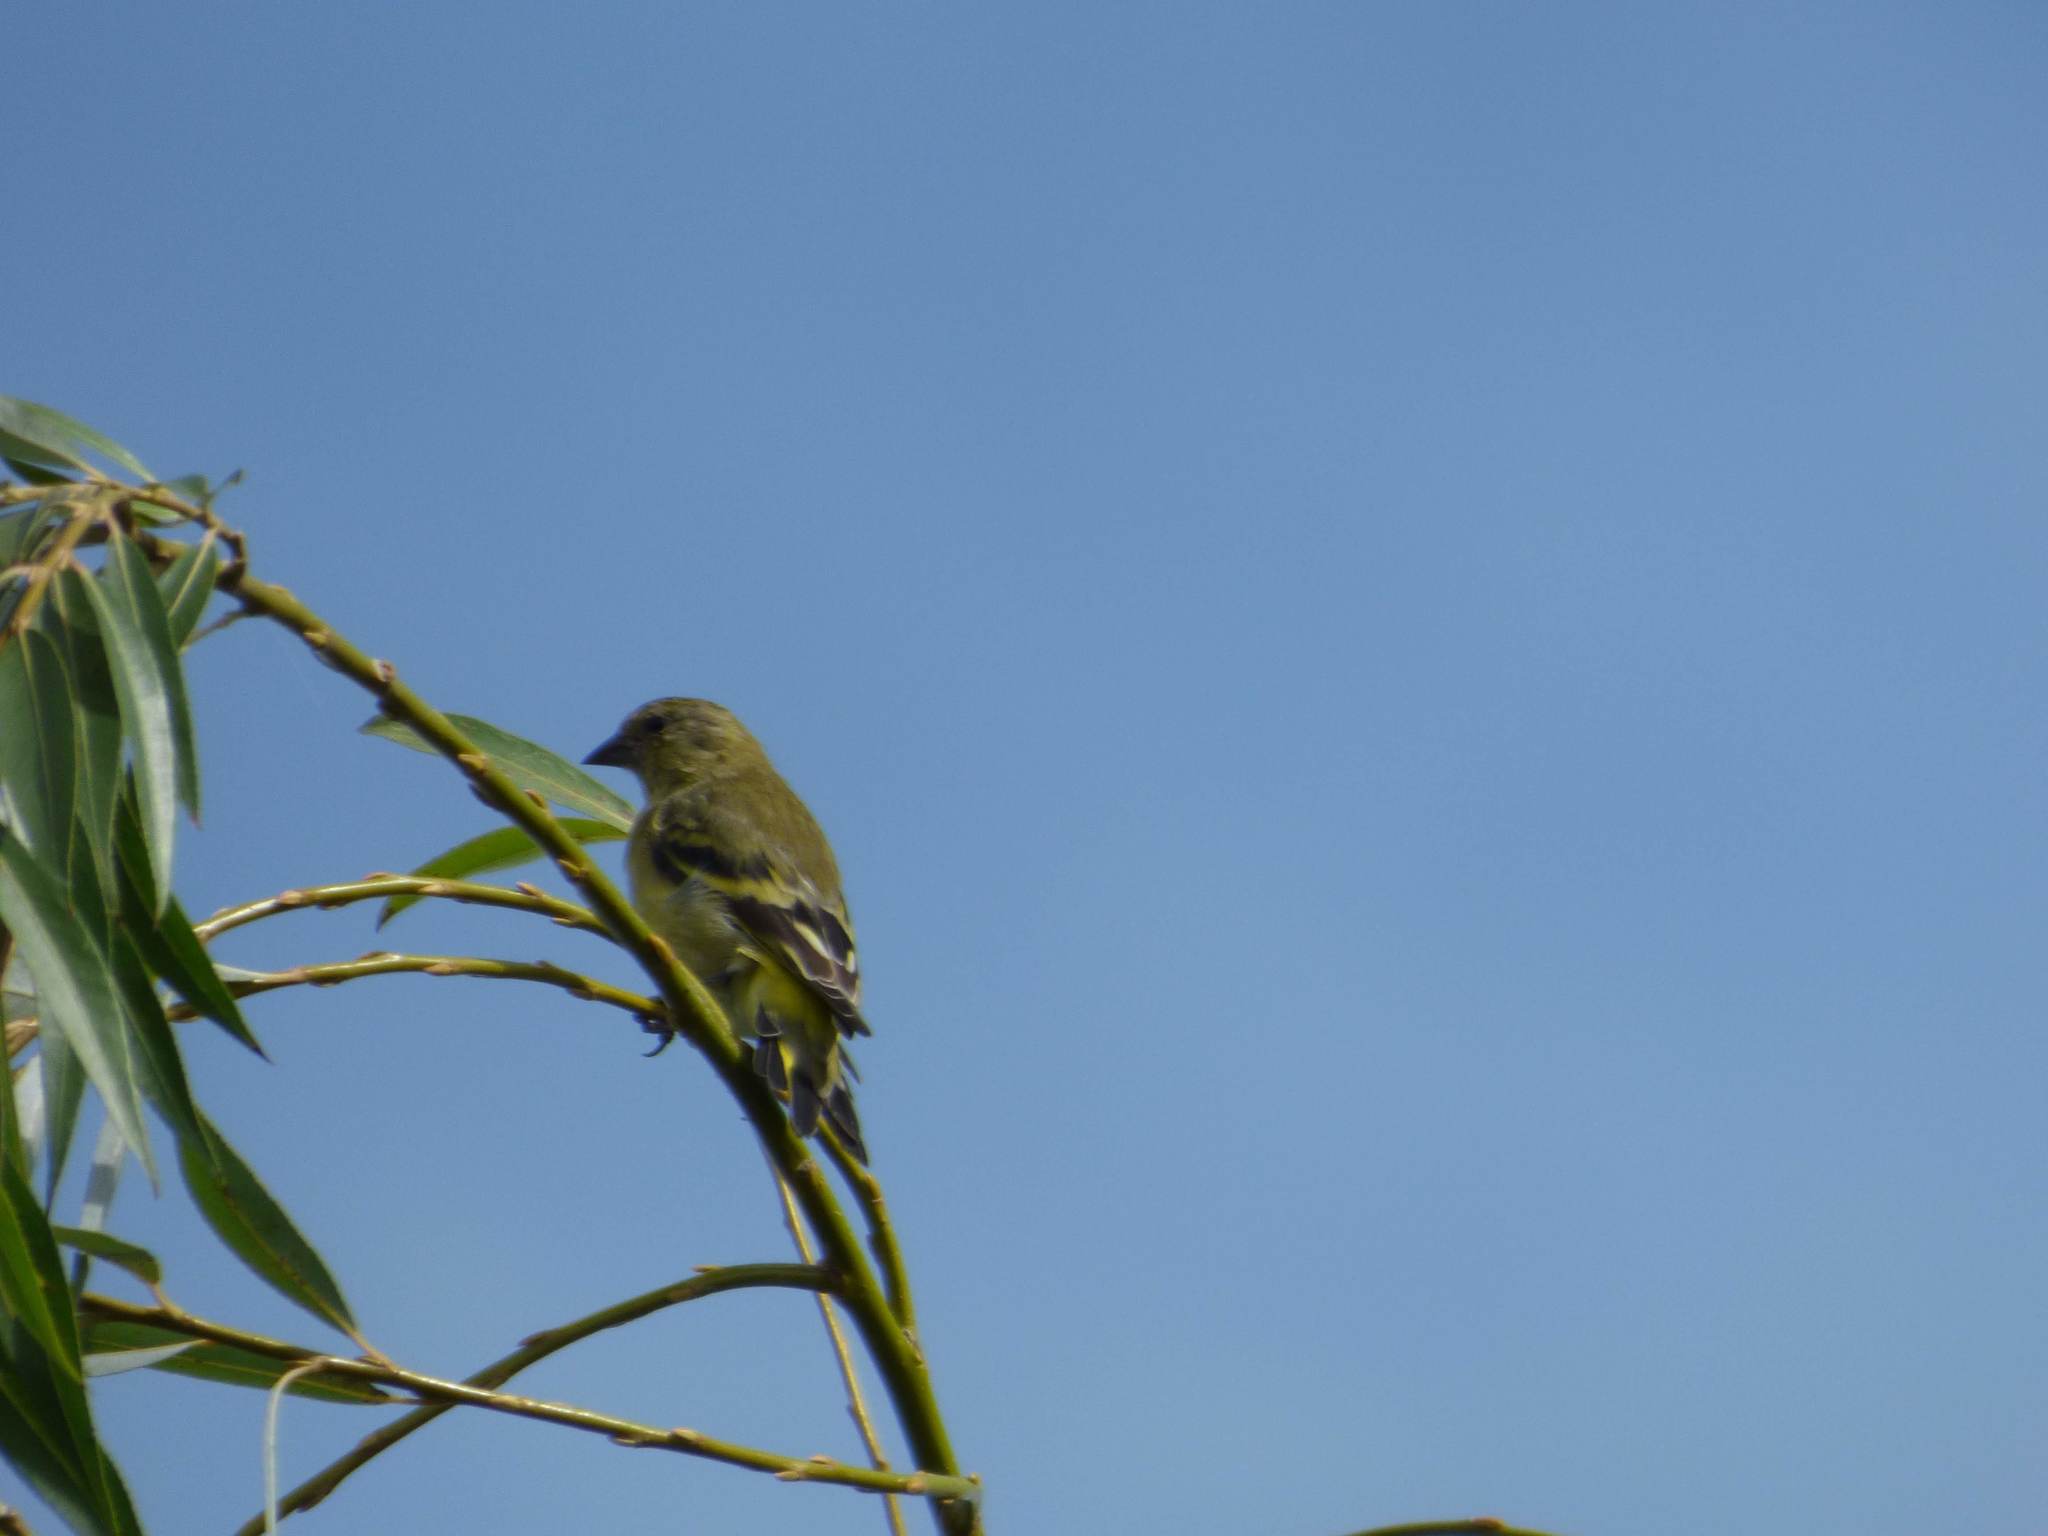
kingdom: Animalia
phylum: Chordata
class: Aves
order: Passeriformes
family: Fringillidae
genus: Spinus
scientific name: Spinus magellanicus
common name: Hooded siskin
